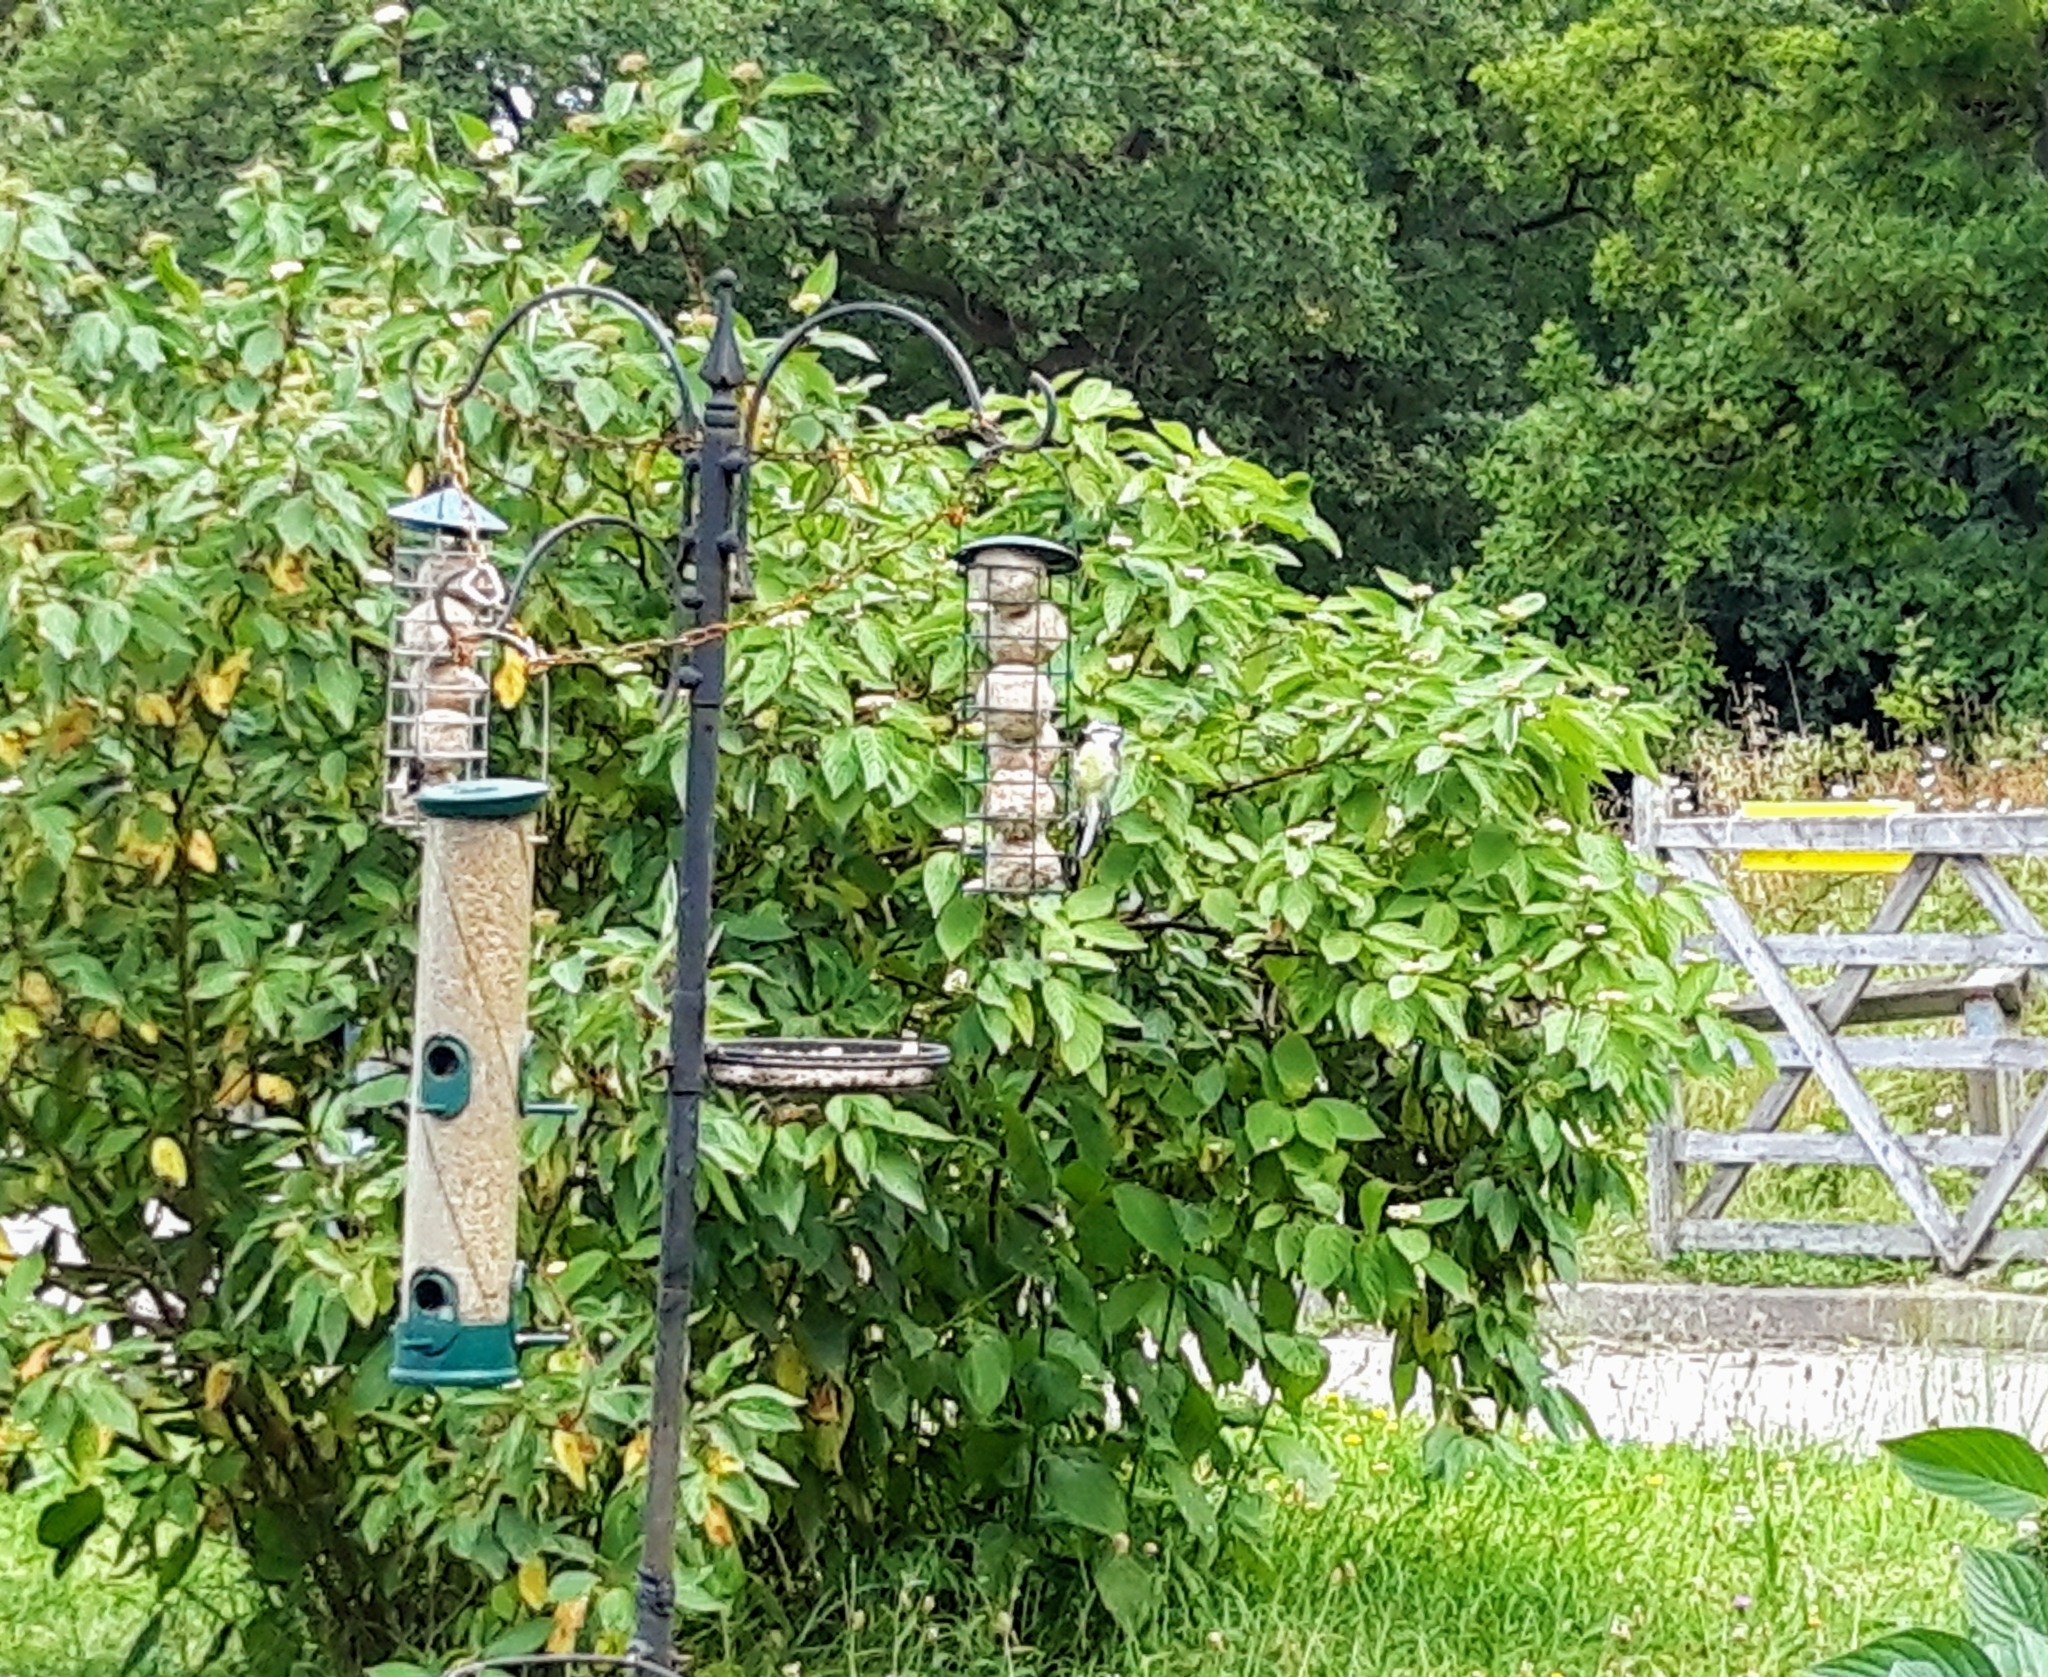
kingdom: Animalia
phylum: Chordata
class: Aves
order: Passeriformes
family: Paridae
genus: Cyanistes
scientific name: Cyanistes caeruleus
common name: Eurasian blue tit
